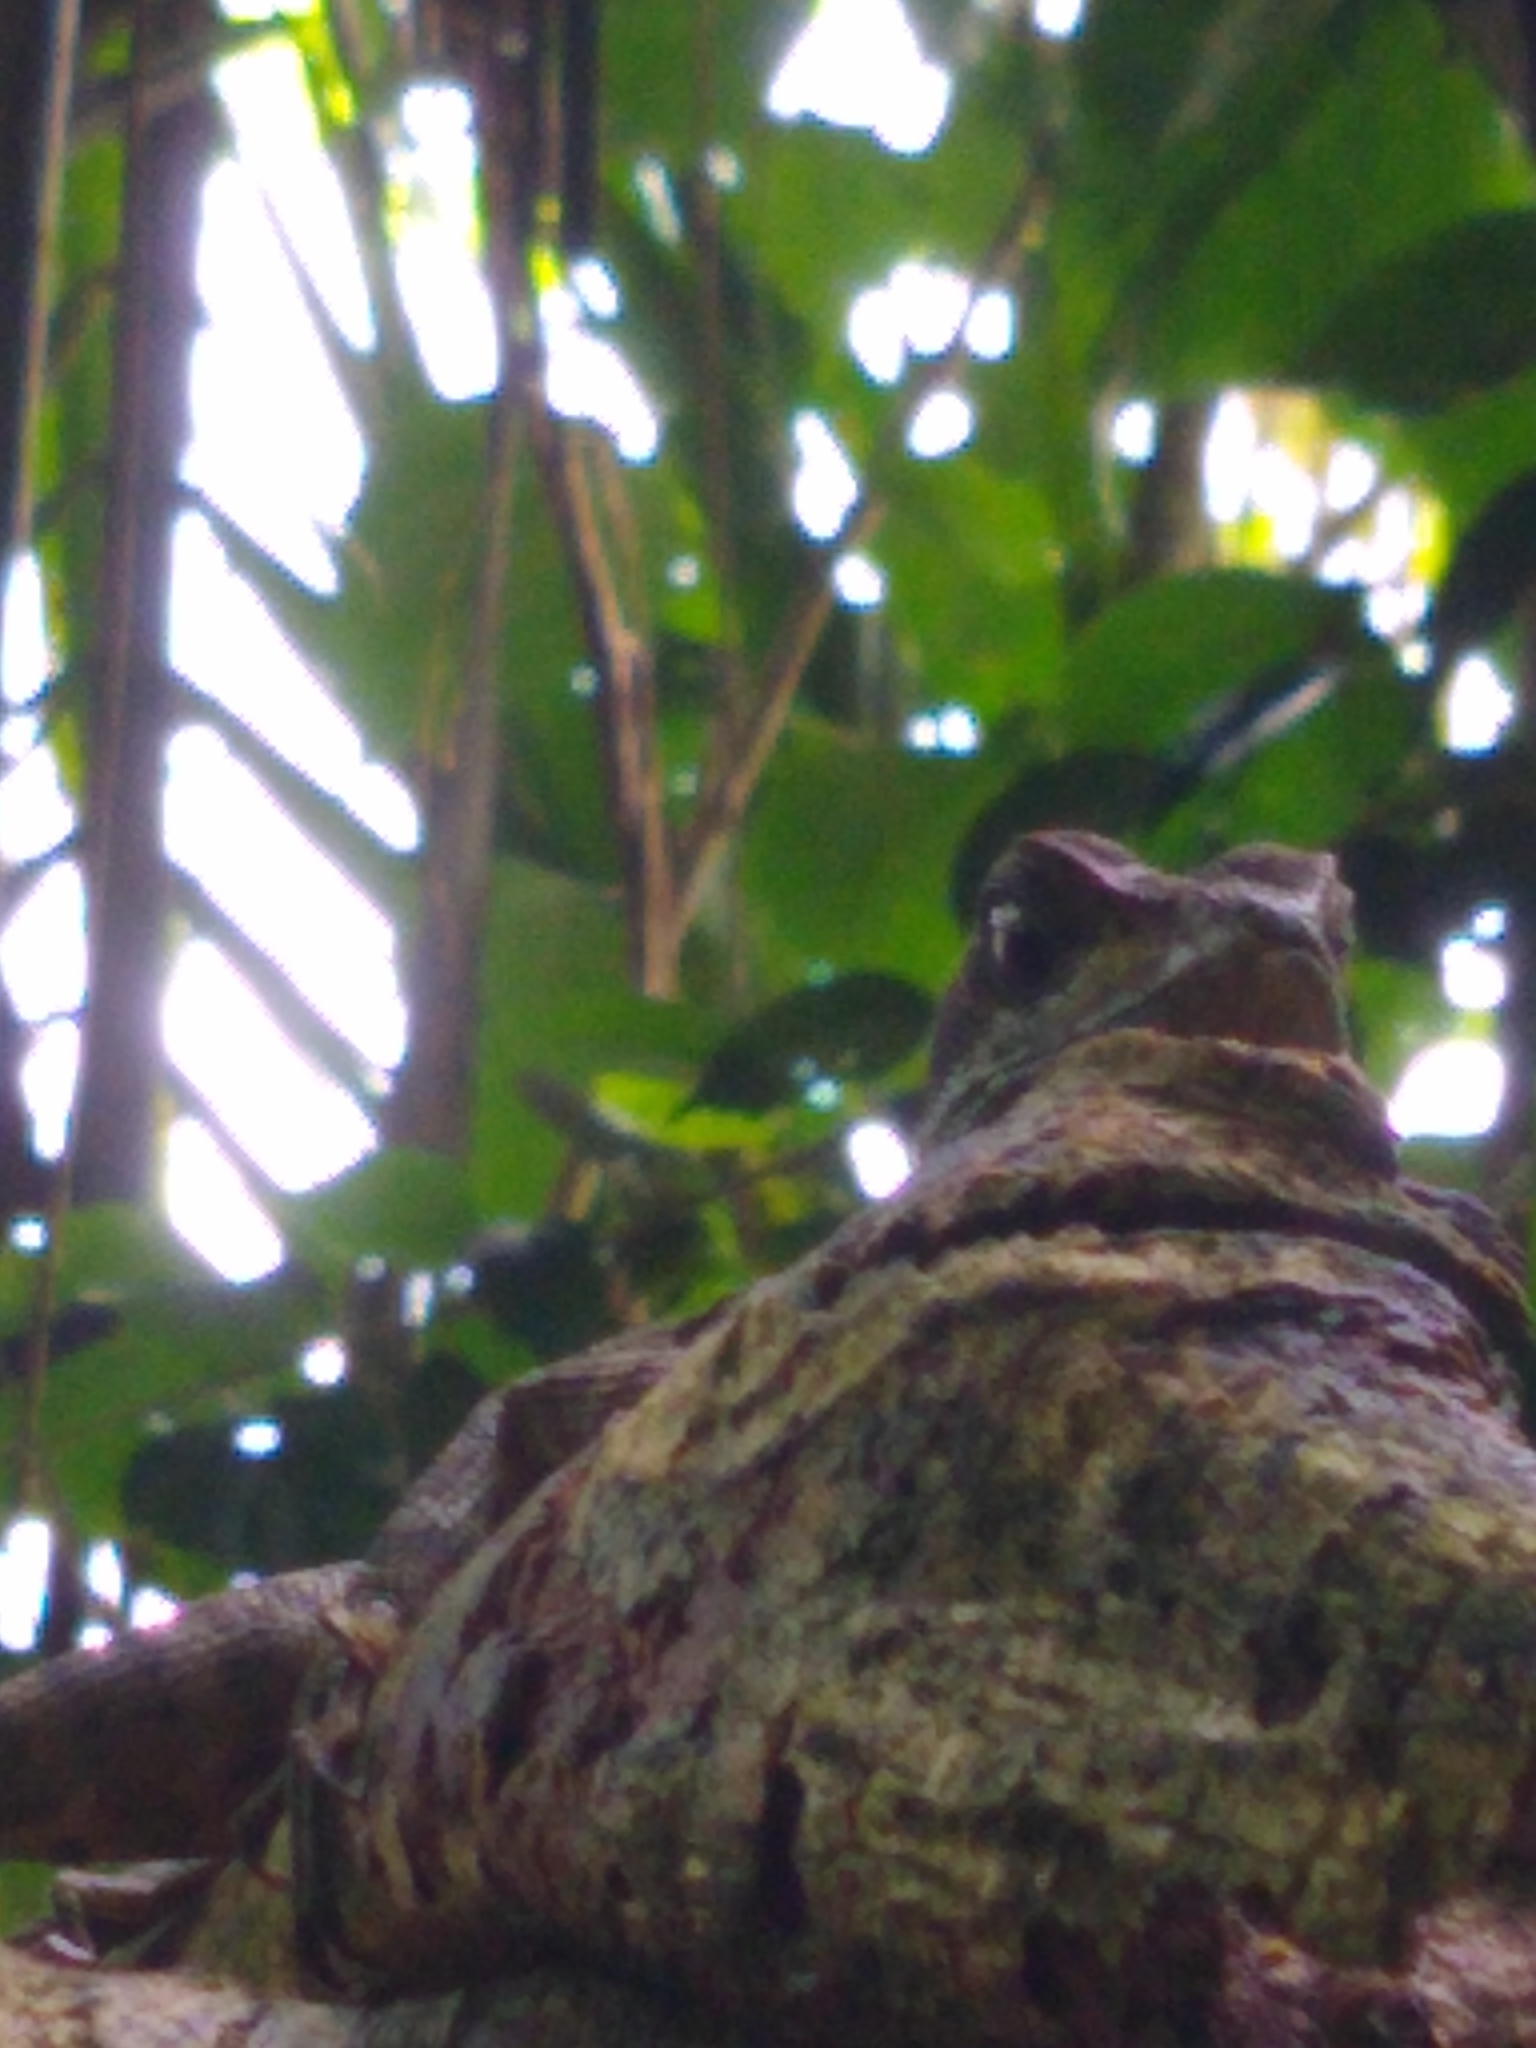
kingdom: Animalia
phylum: Chordata
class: Squamata
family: Corytophanidae
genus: Basiliscus
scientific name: Basiliscus basiliscus
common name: Common basilisk
